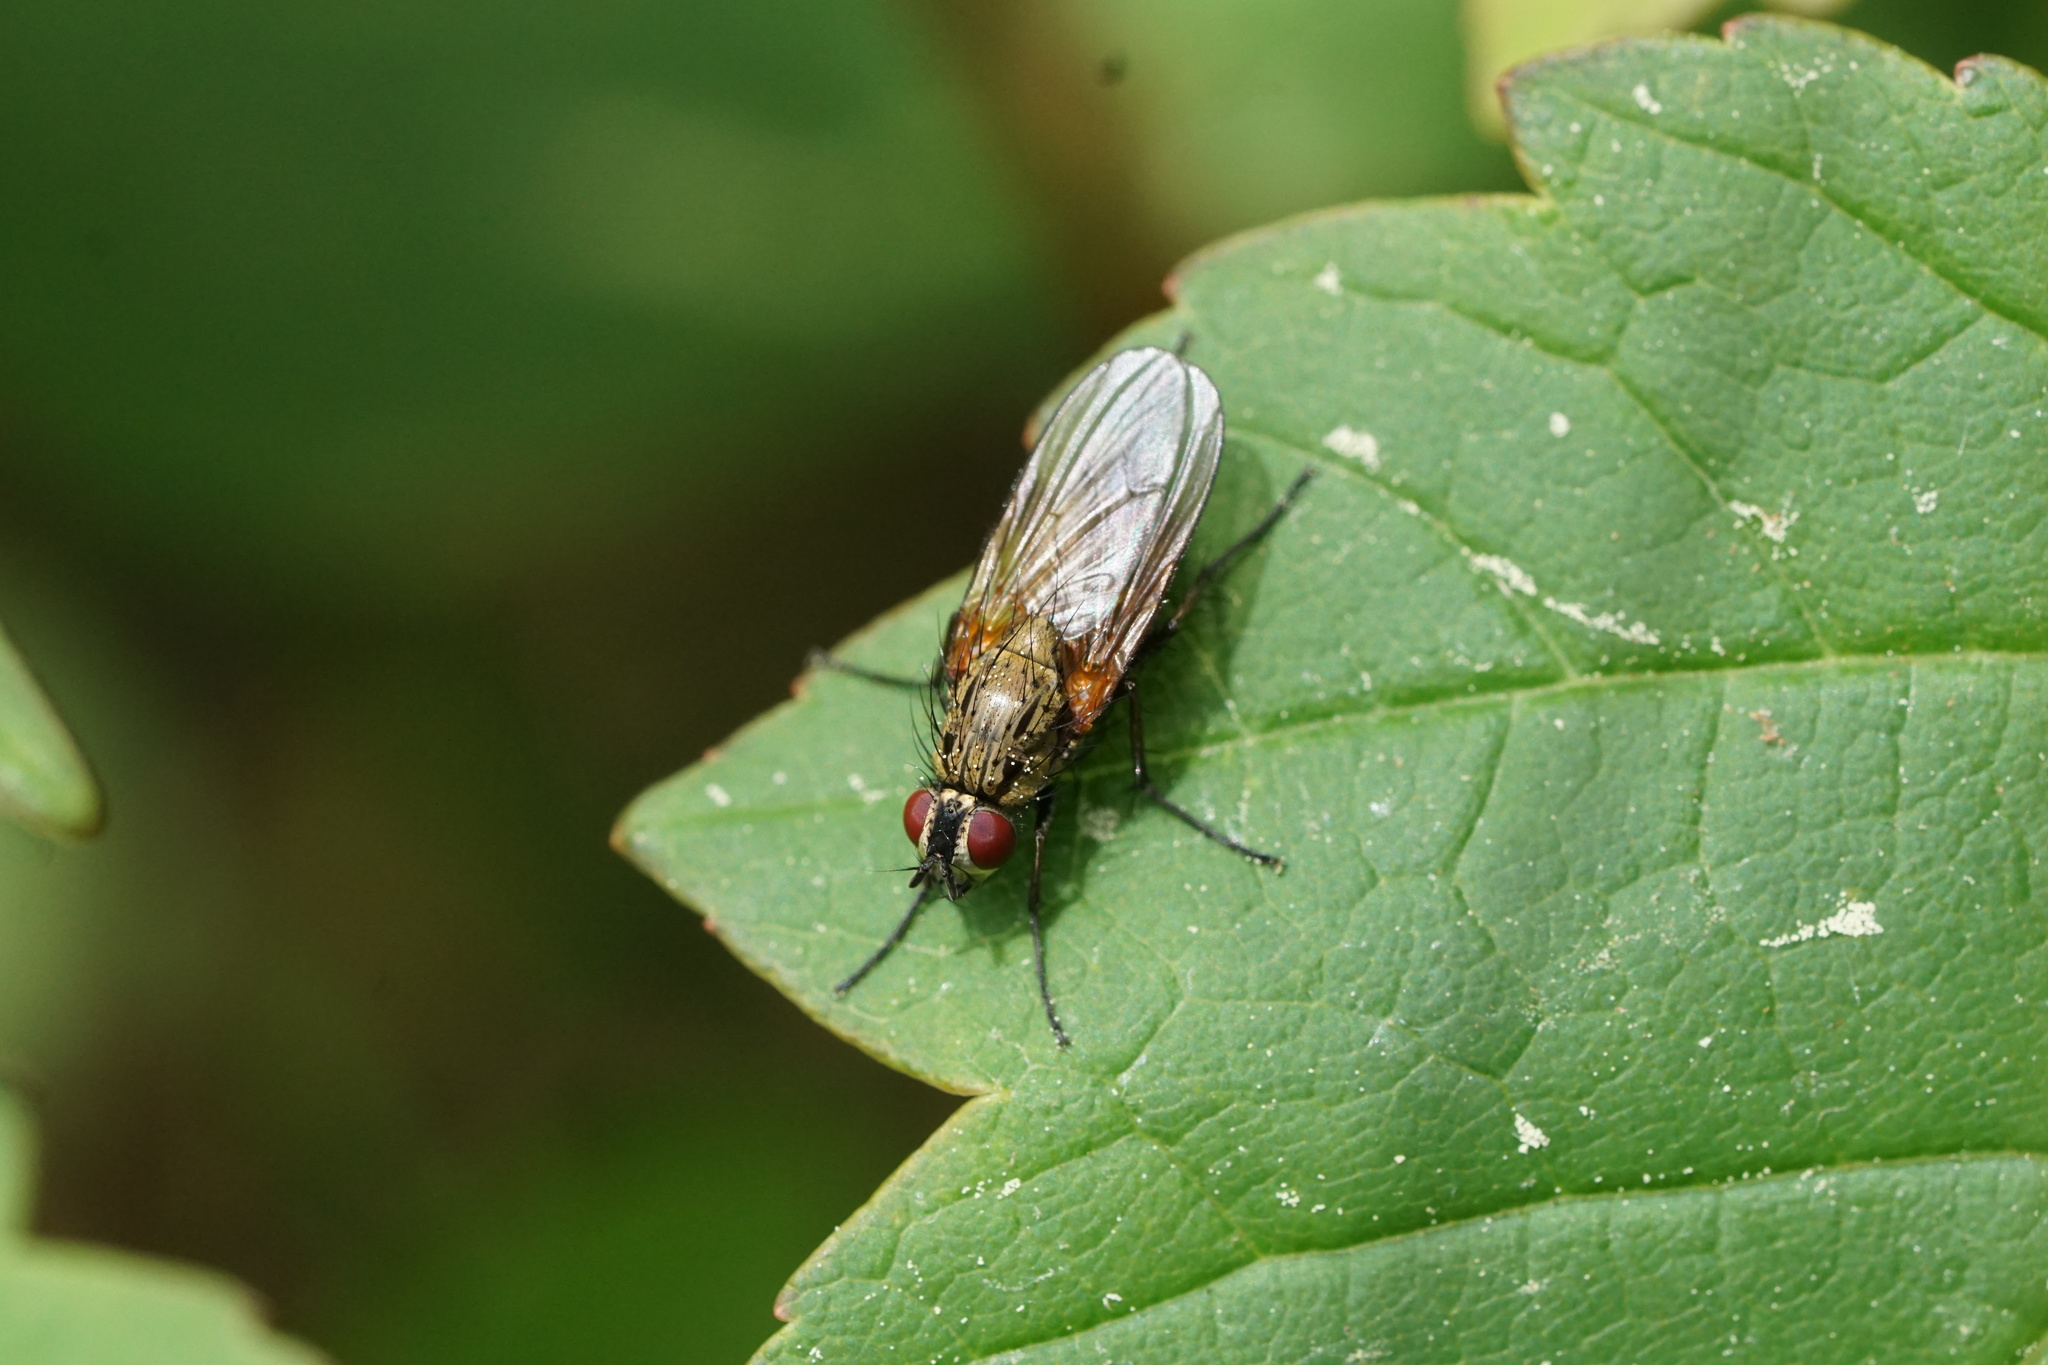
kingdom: Animalia
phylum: Arthropoda
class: Insecta
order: Diptera
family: Anthomyiidae
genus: Hydrophoria
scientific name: Hydrophoria lancifer
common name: Root-maggot fly
